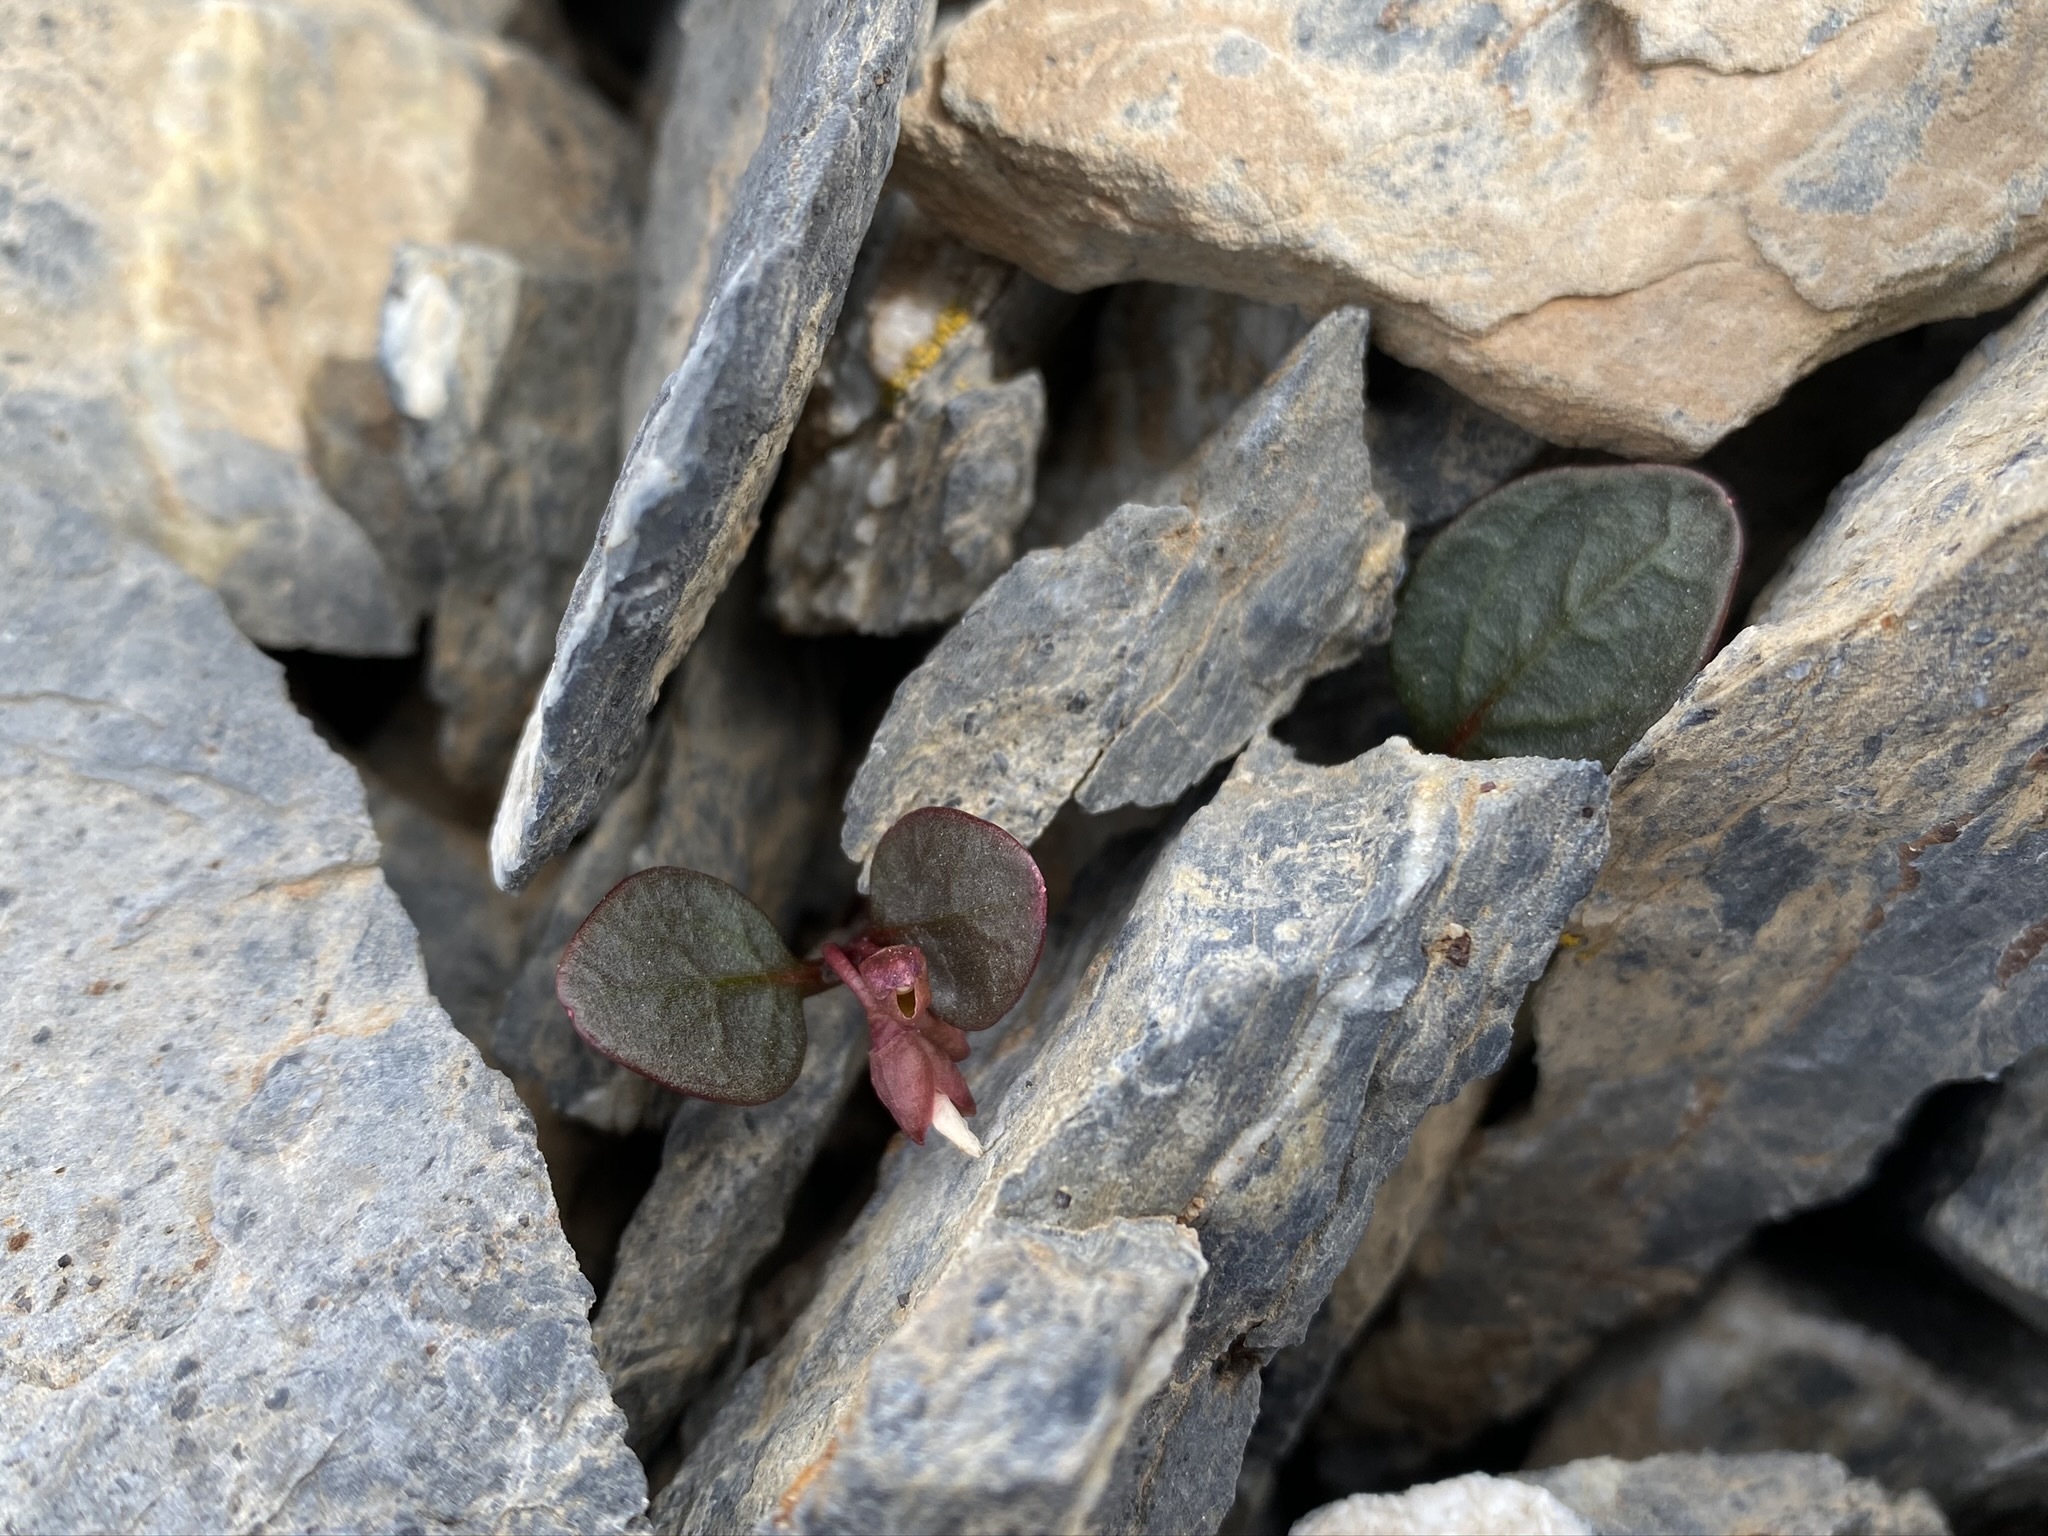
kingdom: Plantae
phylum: Tracheophyta
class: Magnoliopsida
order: Caryophyllales
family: Montiaceae
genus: Claytonia
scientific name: Claytonia umbellata
